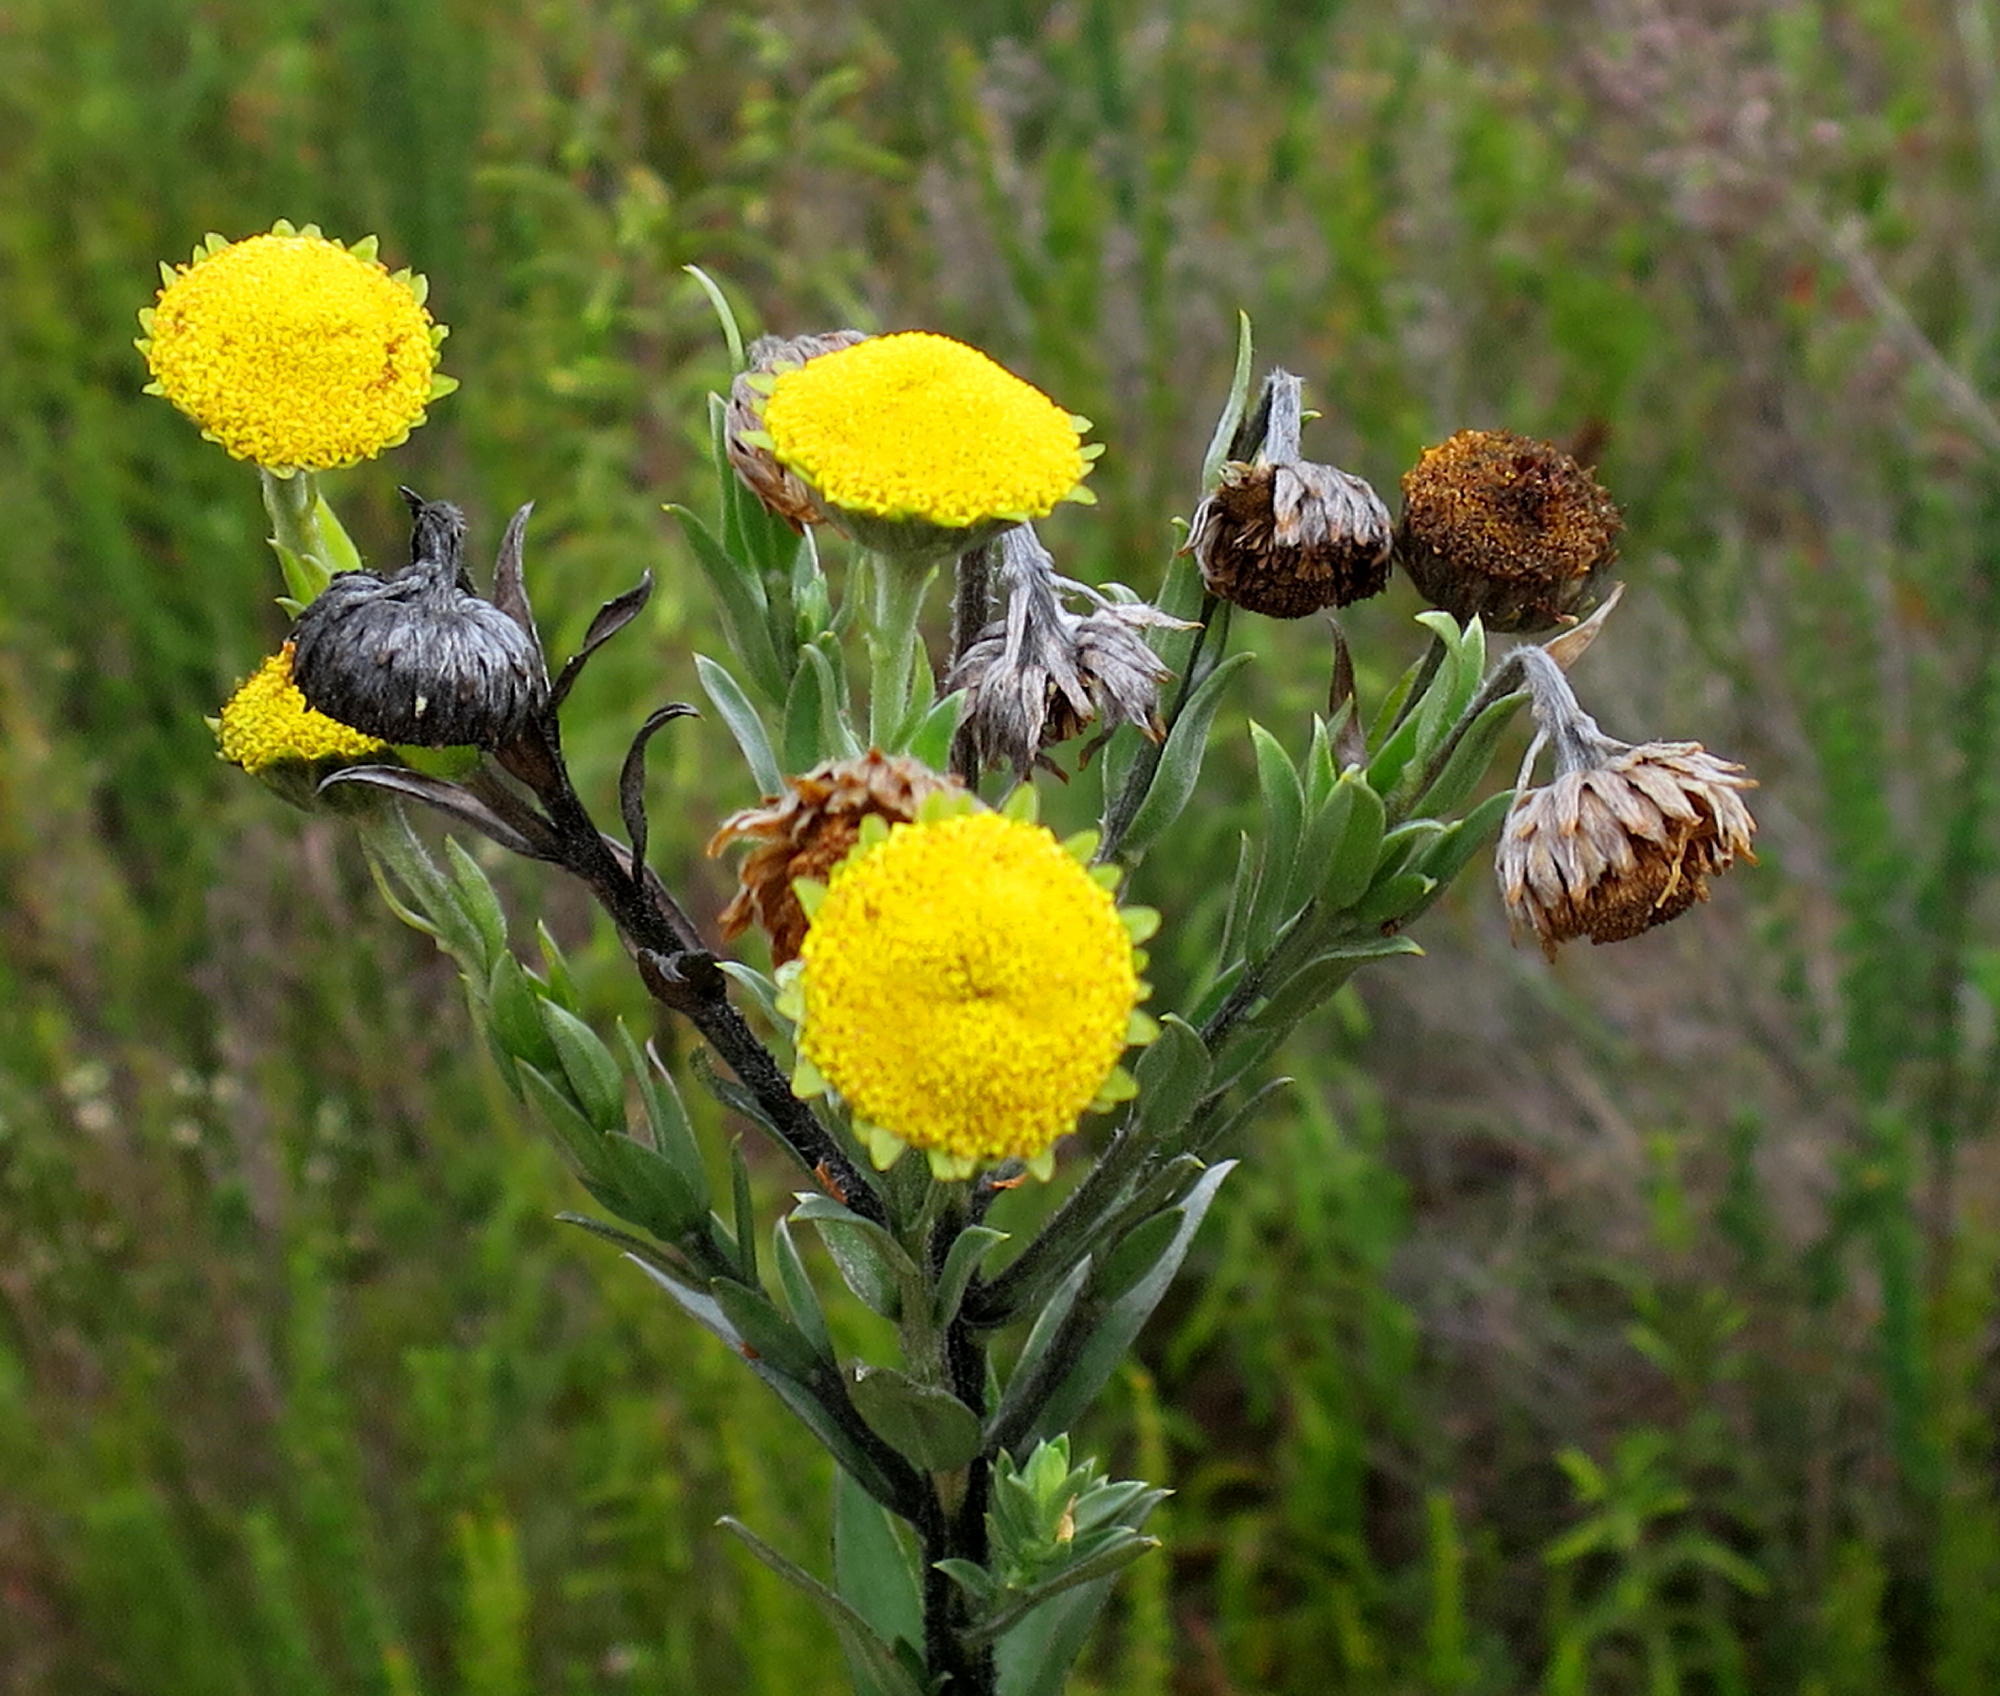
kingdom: Plantae
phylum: Tracheophyta
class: Magnoliopsida
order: Asterales
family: Asteraceae
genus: Schistostephium
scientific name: Schistostephium umbellatum
